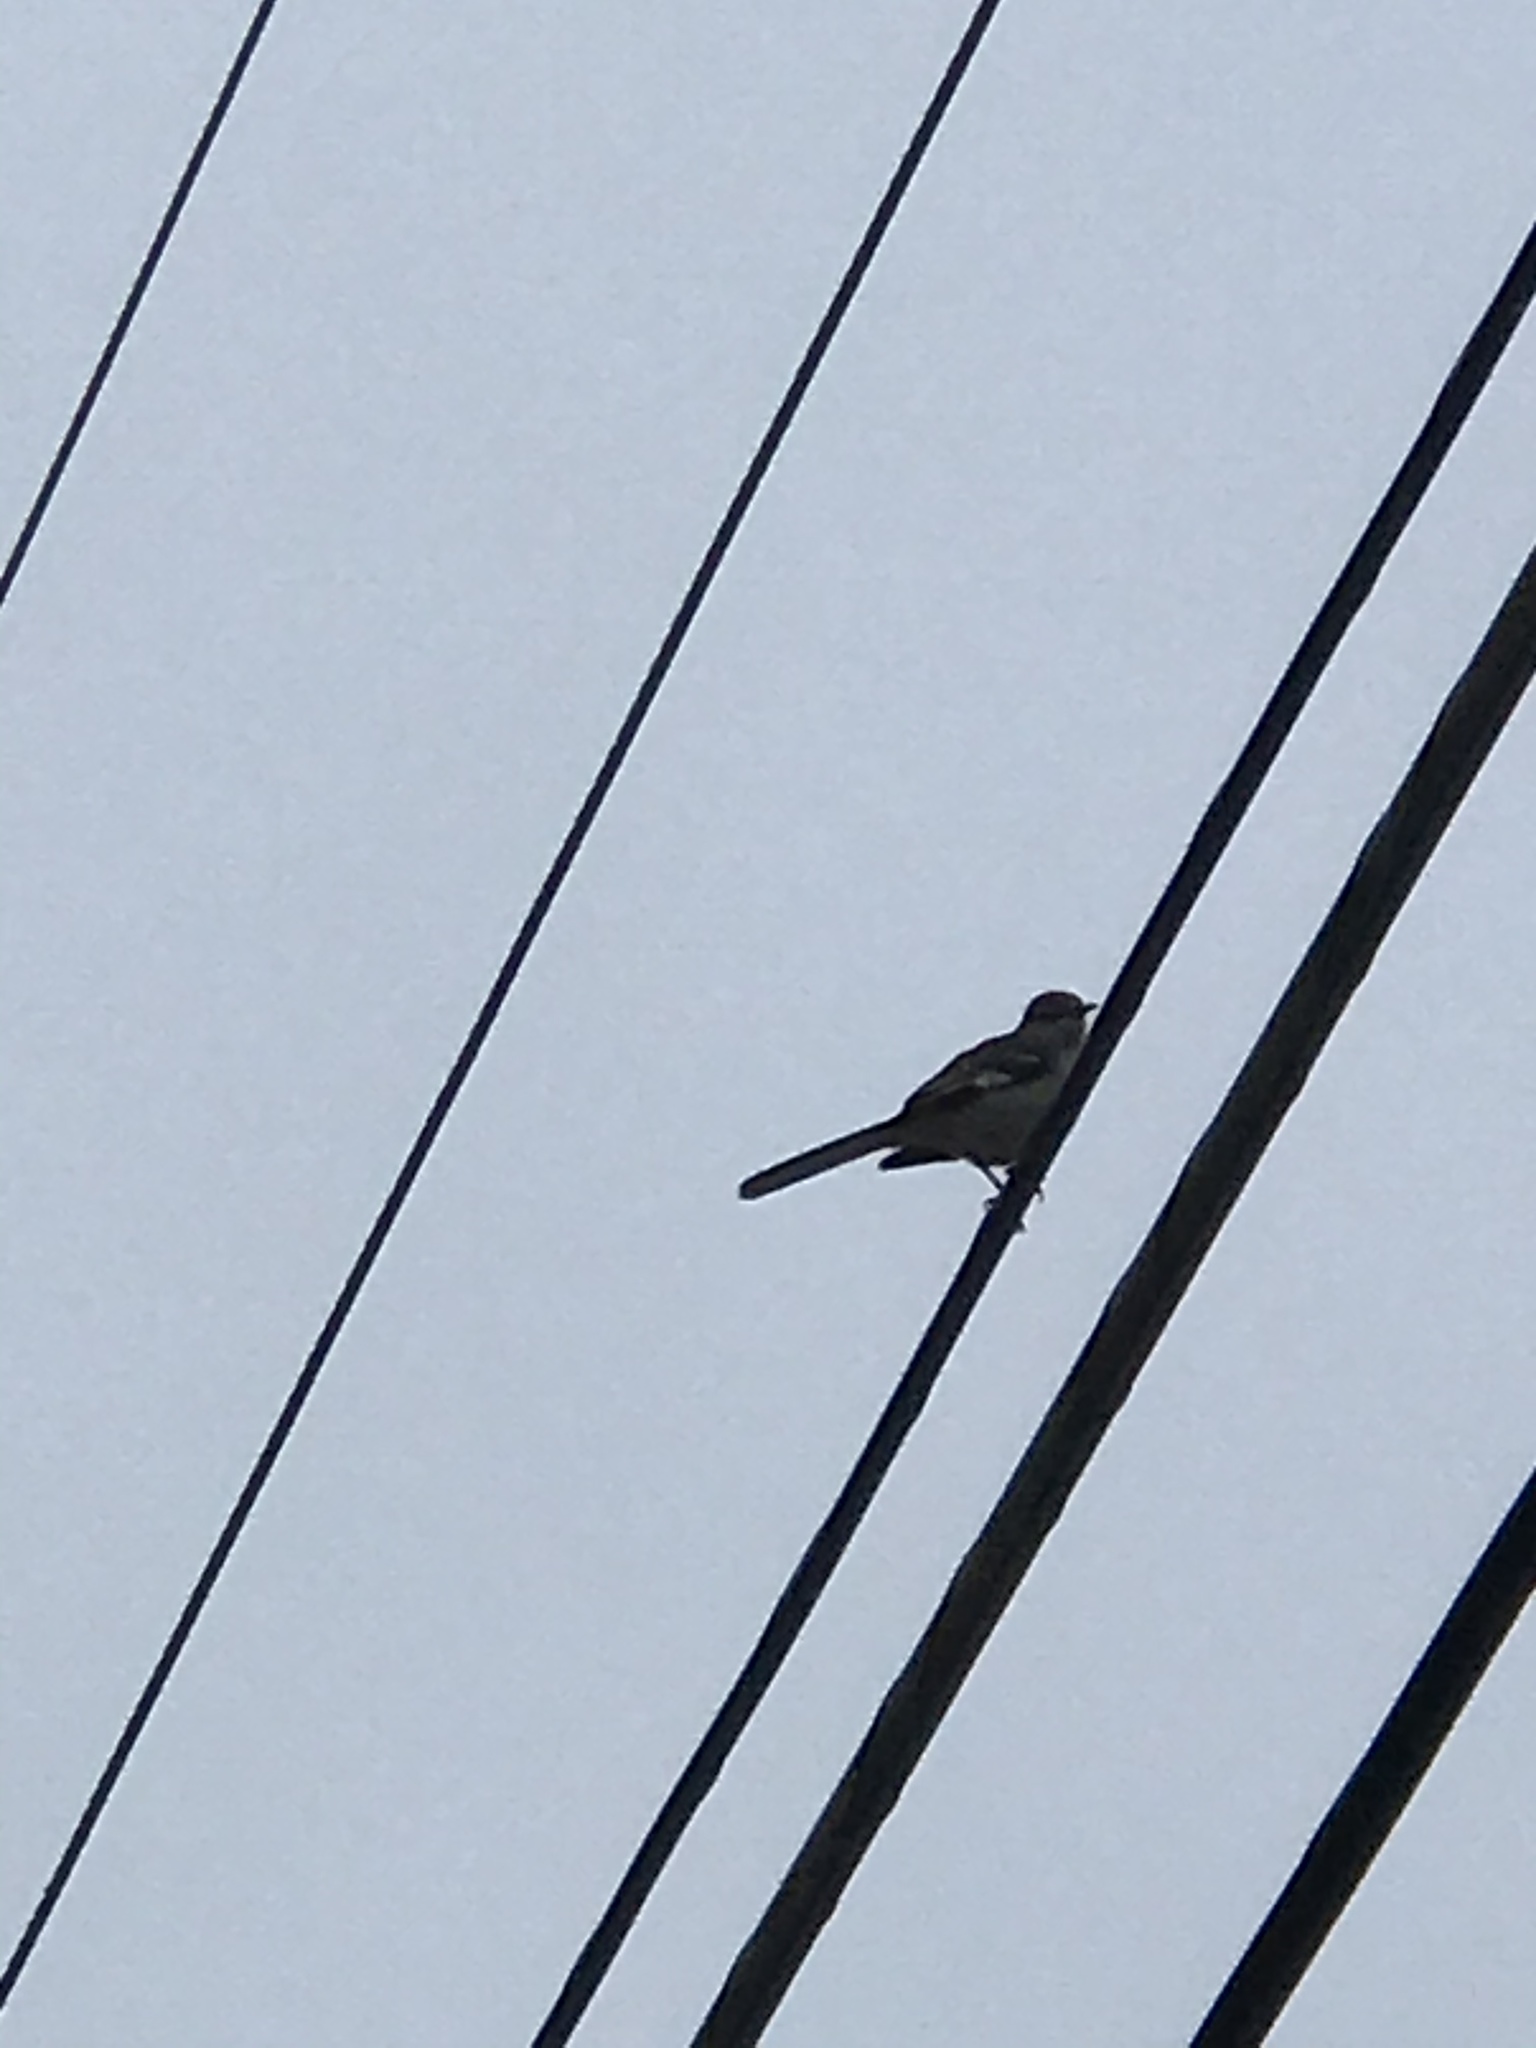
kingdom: Animalia
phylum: Chordata
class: Aves
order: Passeriformes
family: Mimidae
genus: Mimus
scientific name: Mimus polyglottos
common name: Northern mockingbird
